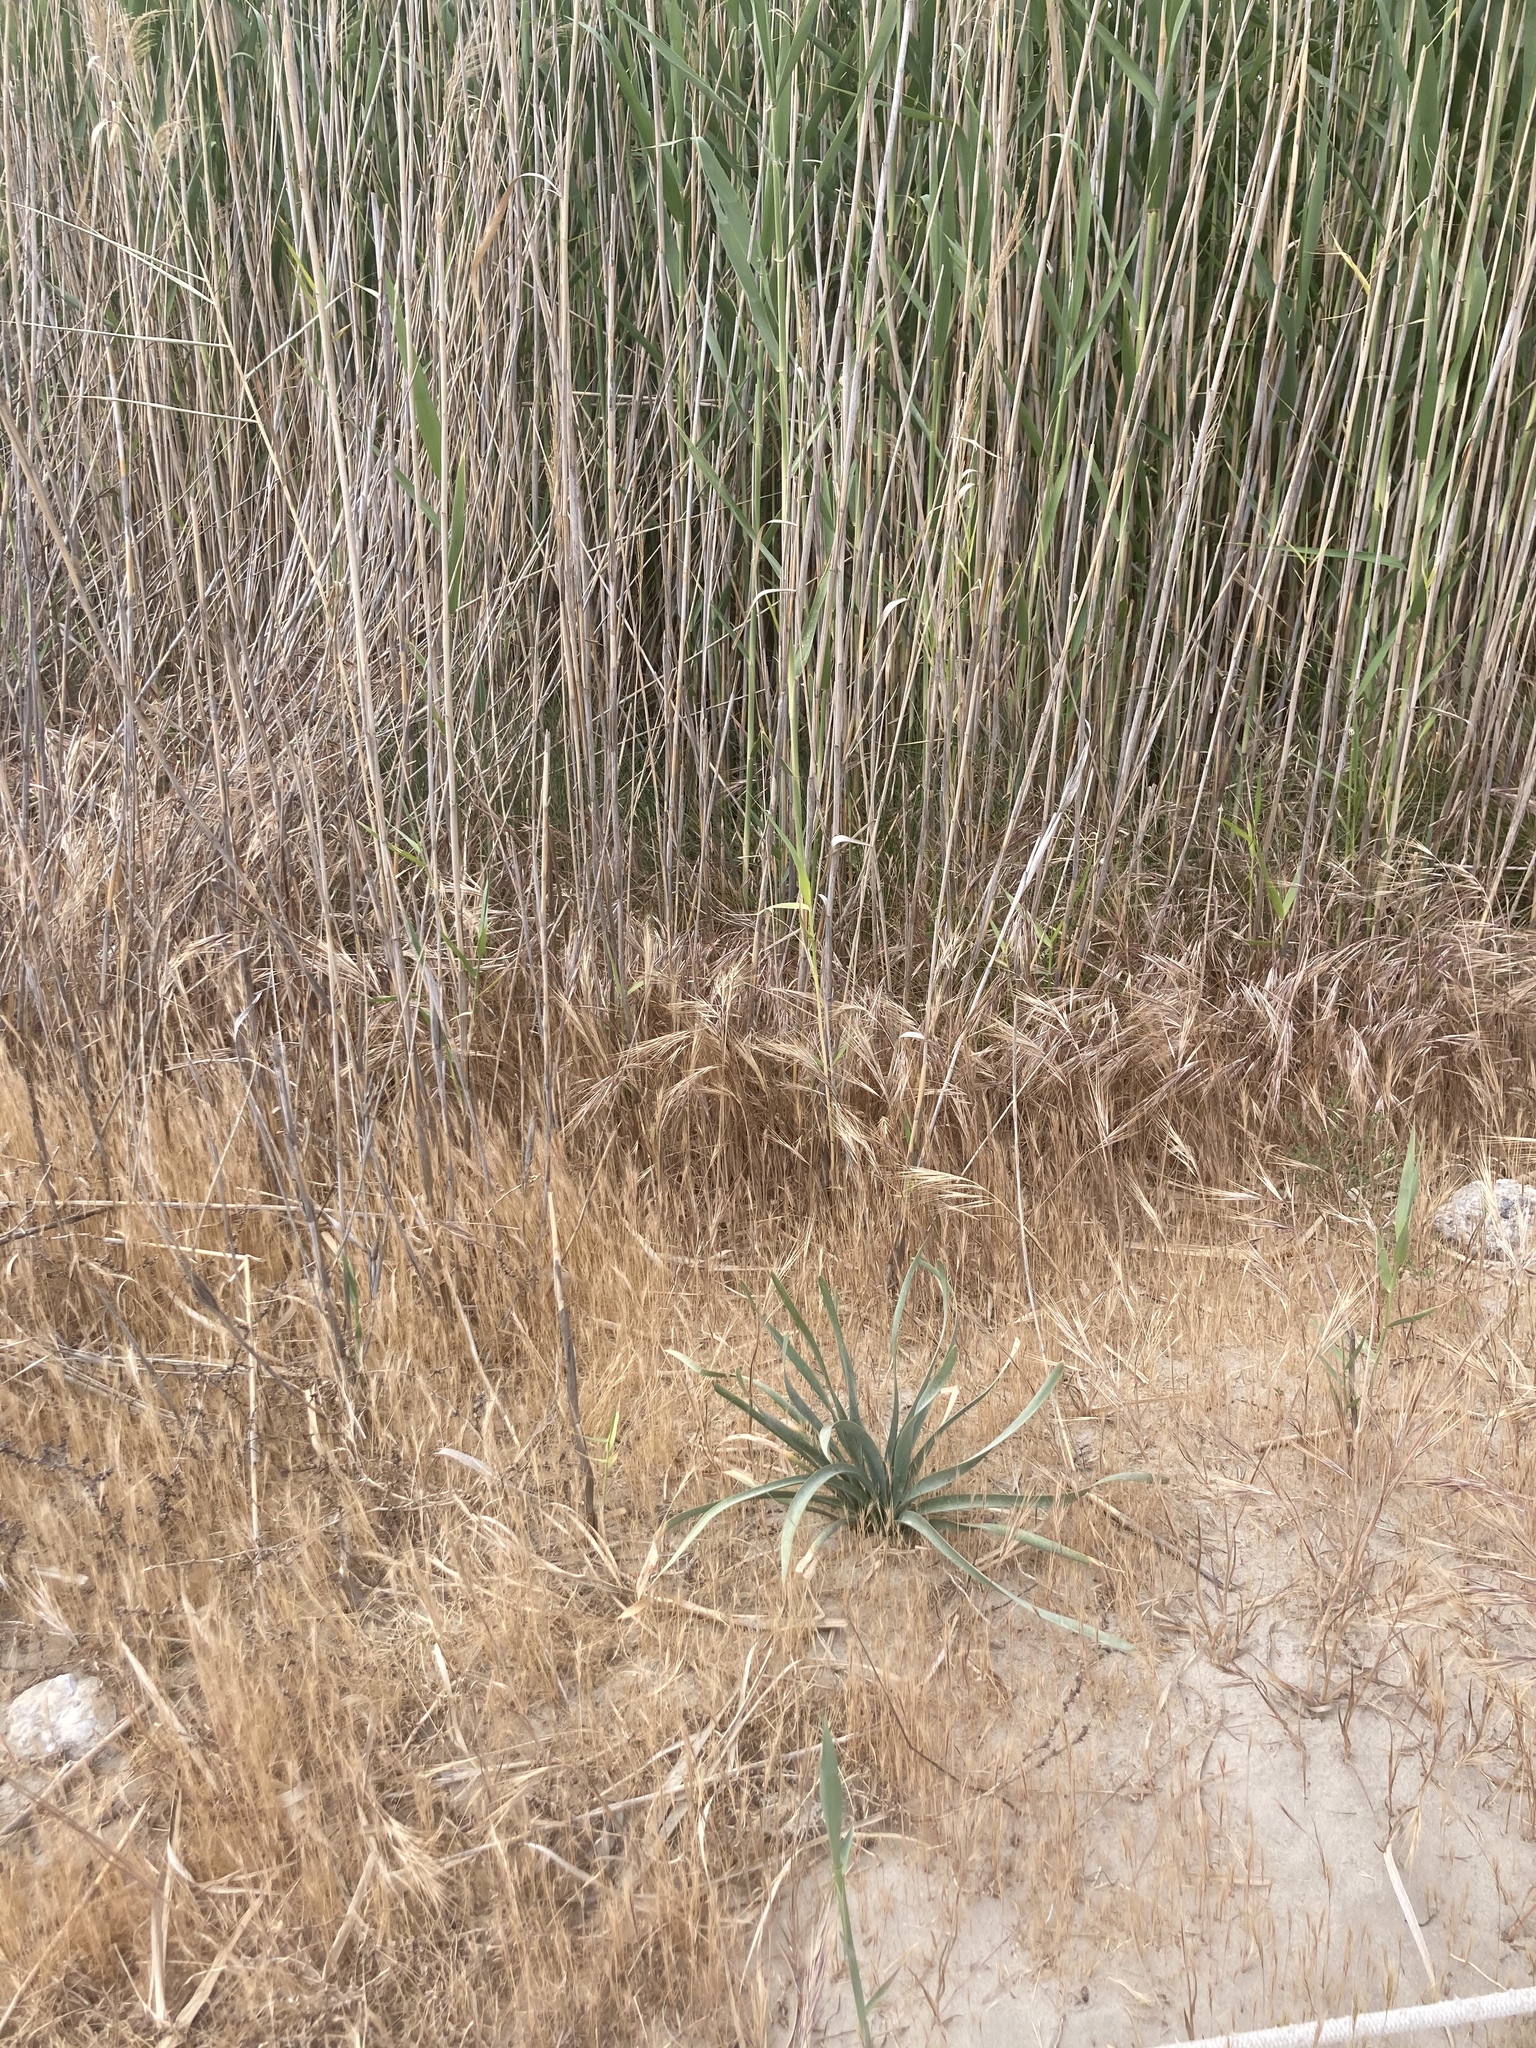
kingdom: Plantae
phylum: Tracheophyta
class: Liliopsida
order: Asparagales
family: Amaryllidaceae
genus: Pancratium
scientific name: Pancratium maritimum
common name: Sea-daffodil
